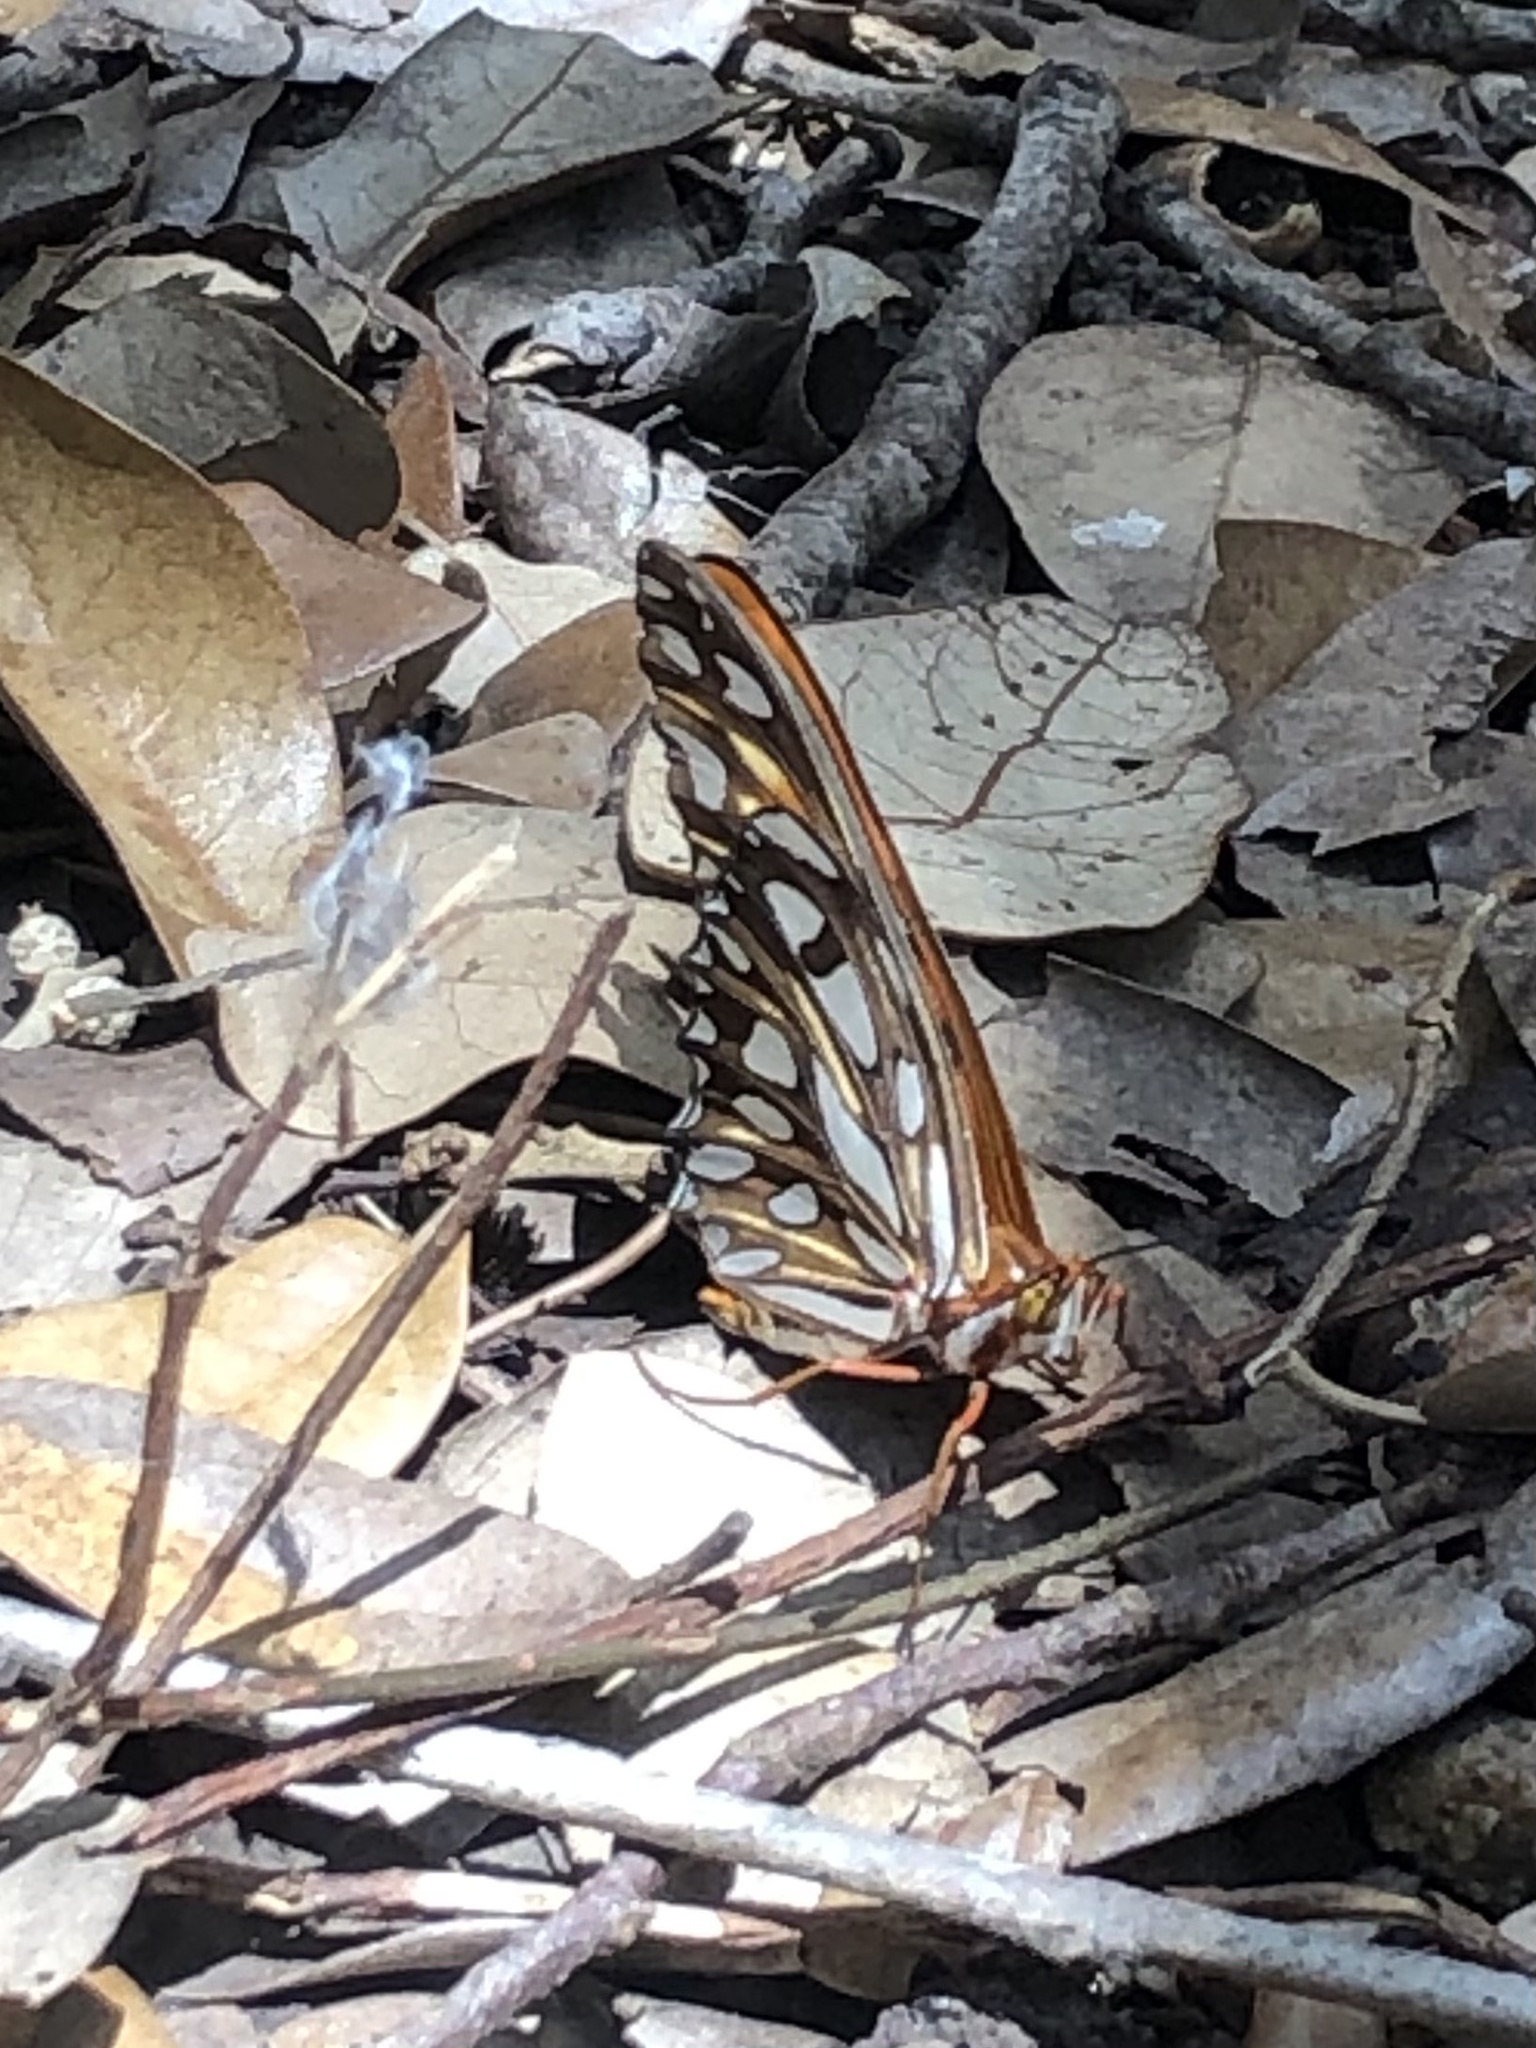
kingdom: Animalia
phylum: Arthropoda
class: Insecta
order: Lepidoptera
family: Nymphalidae
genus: Dione
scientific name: Dione vanillae
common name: Gulf fritillary
